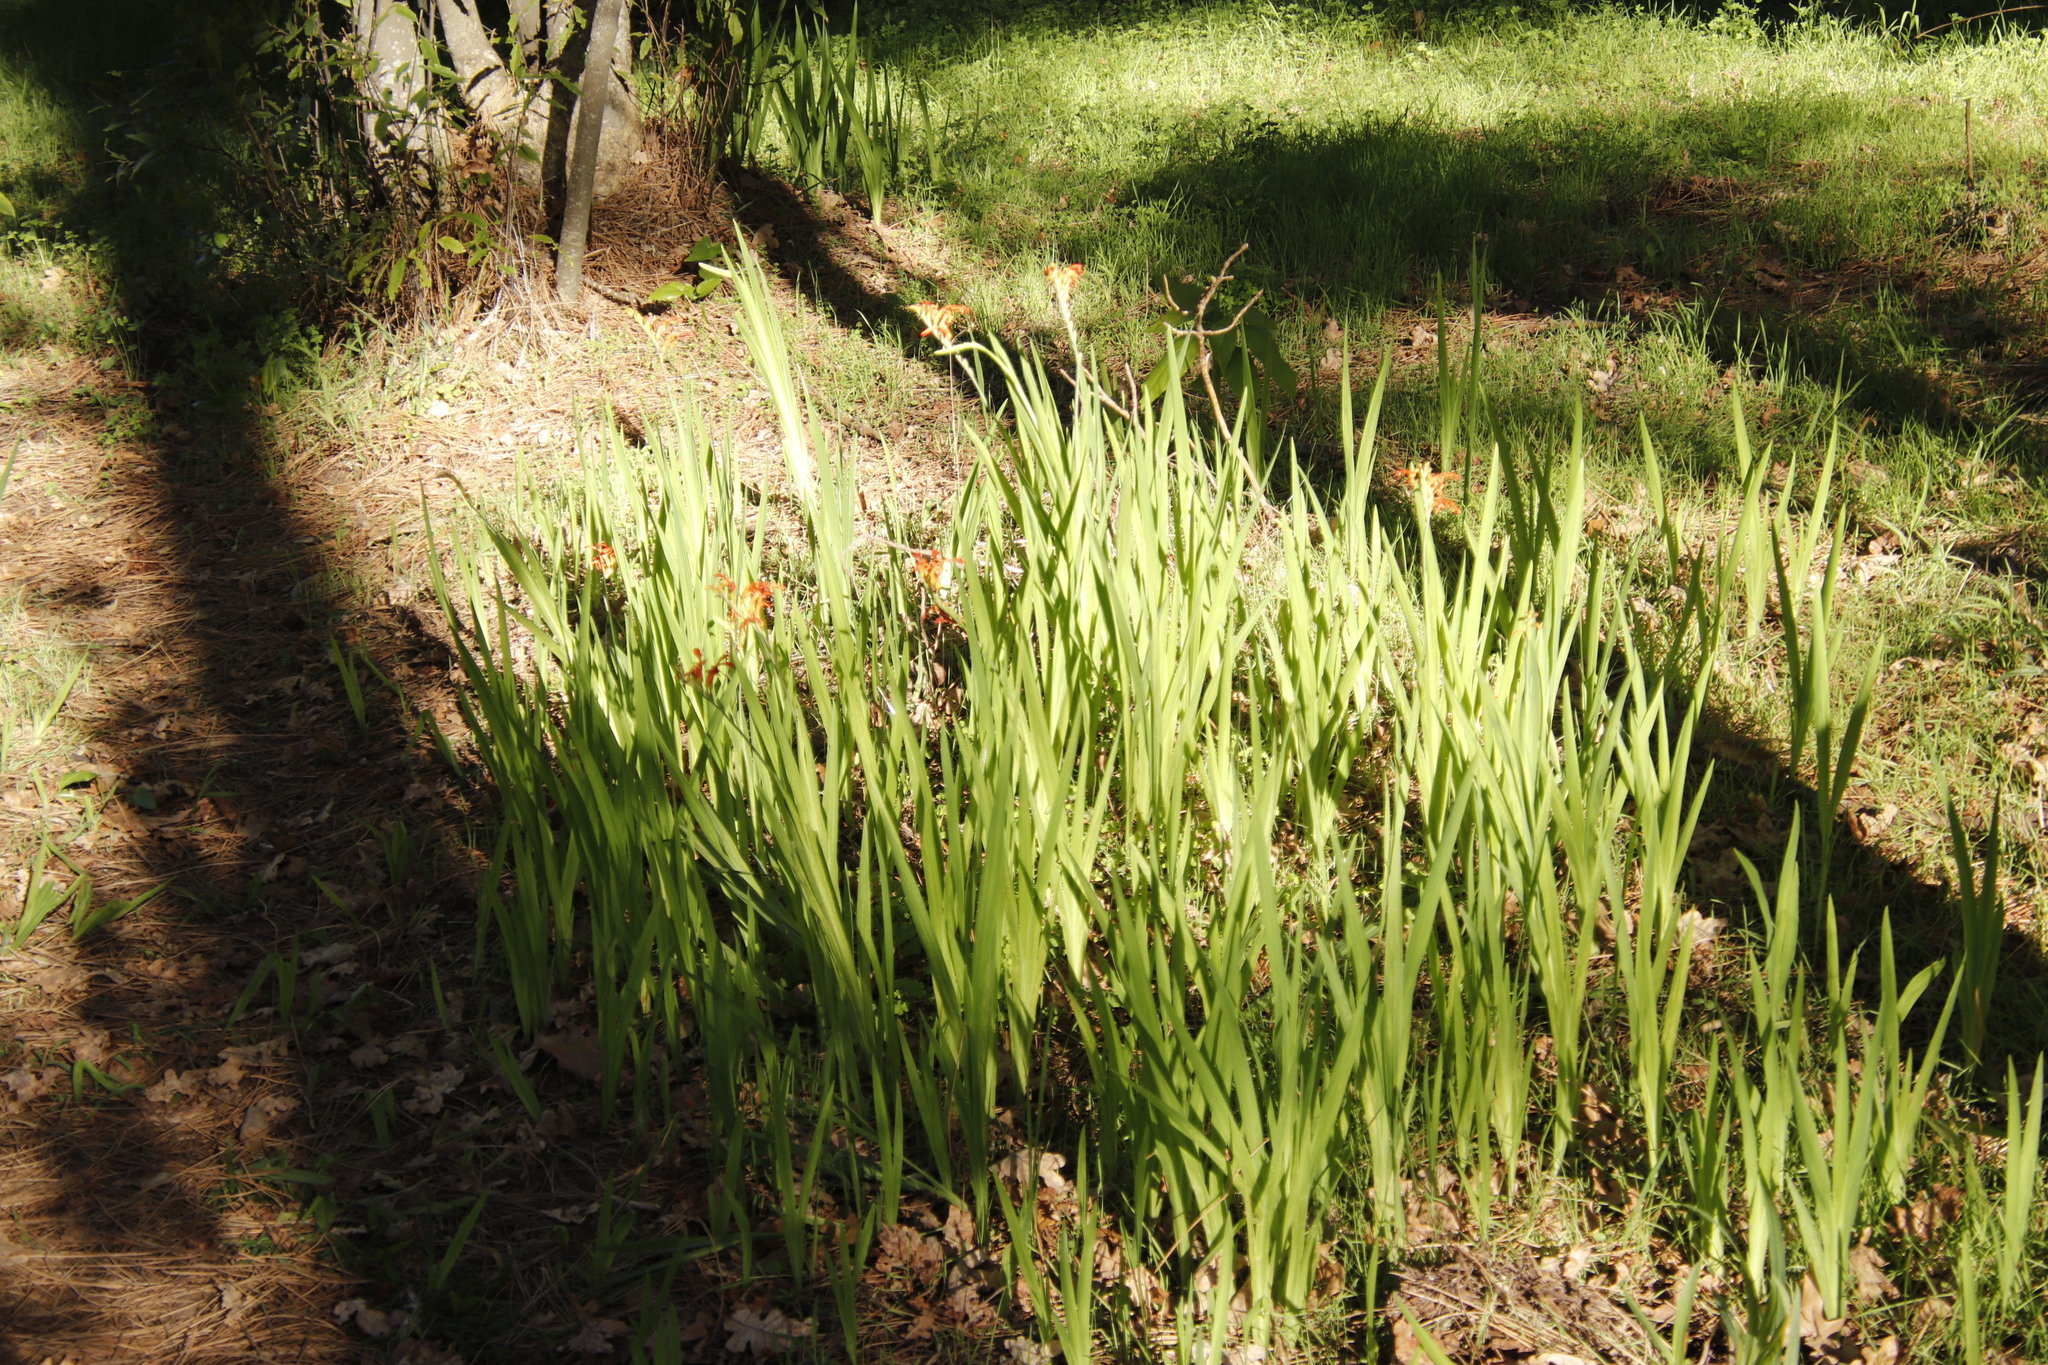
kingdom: Plantae
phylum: Tracheophyta
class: Liliopsida
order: Asparagales
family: Iridaceae
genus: Chasmanthe
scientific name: Chasmanthe aethiopica
